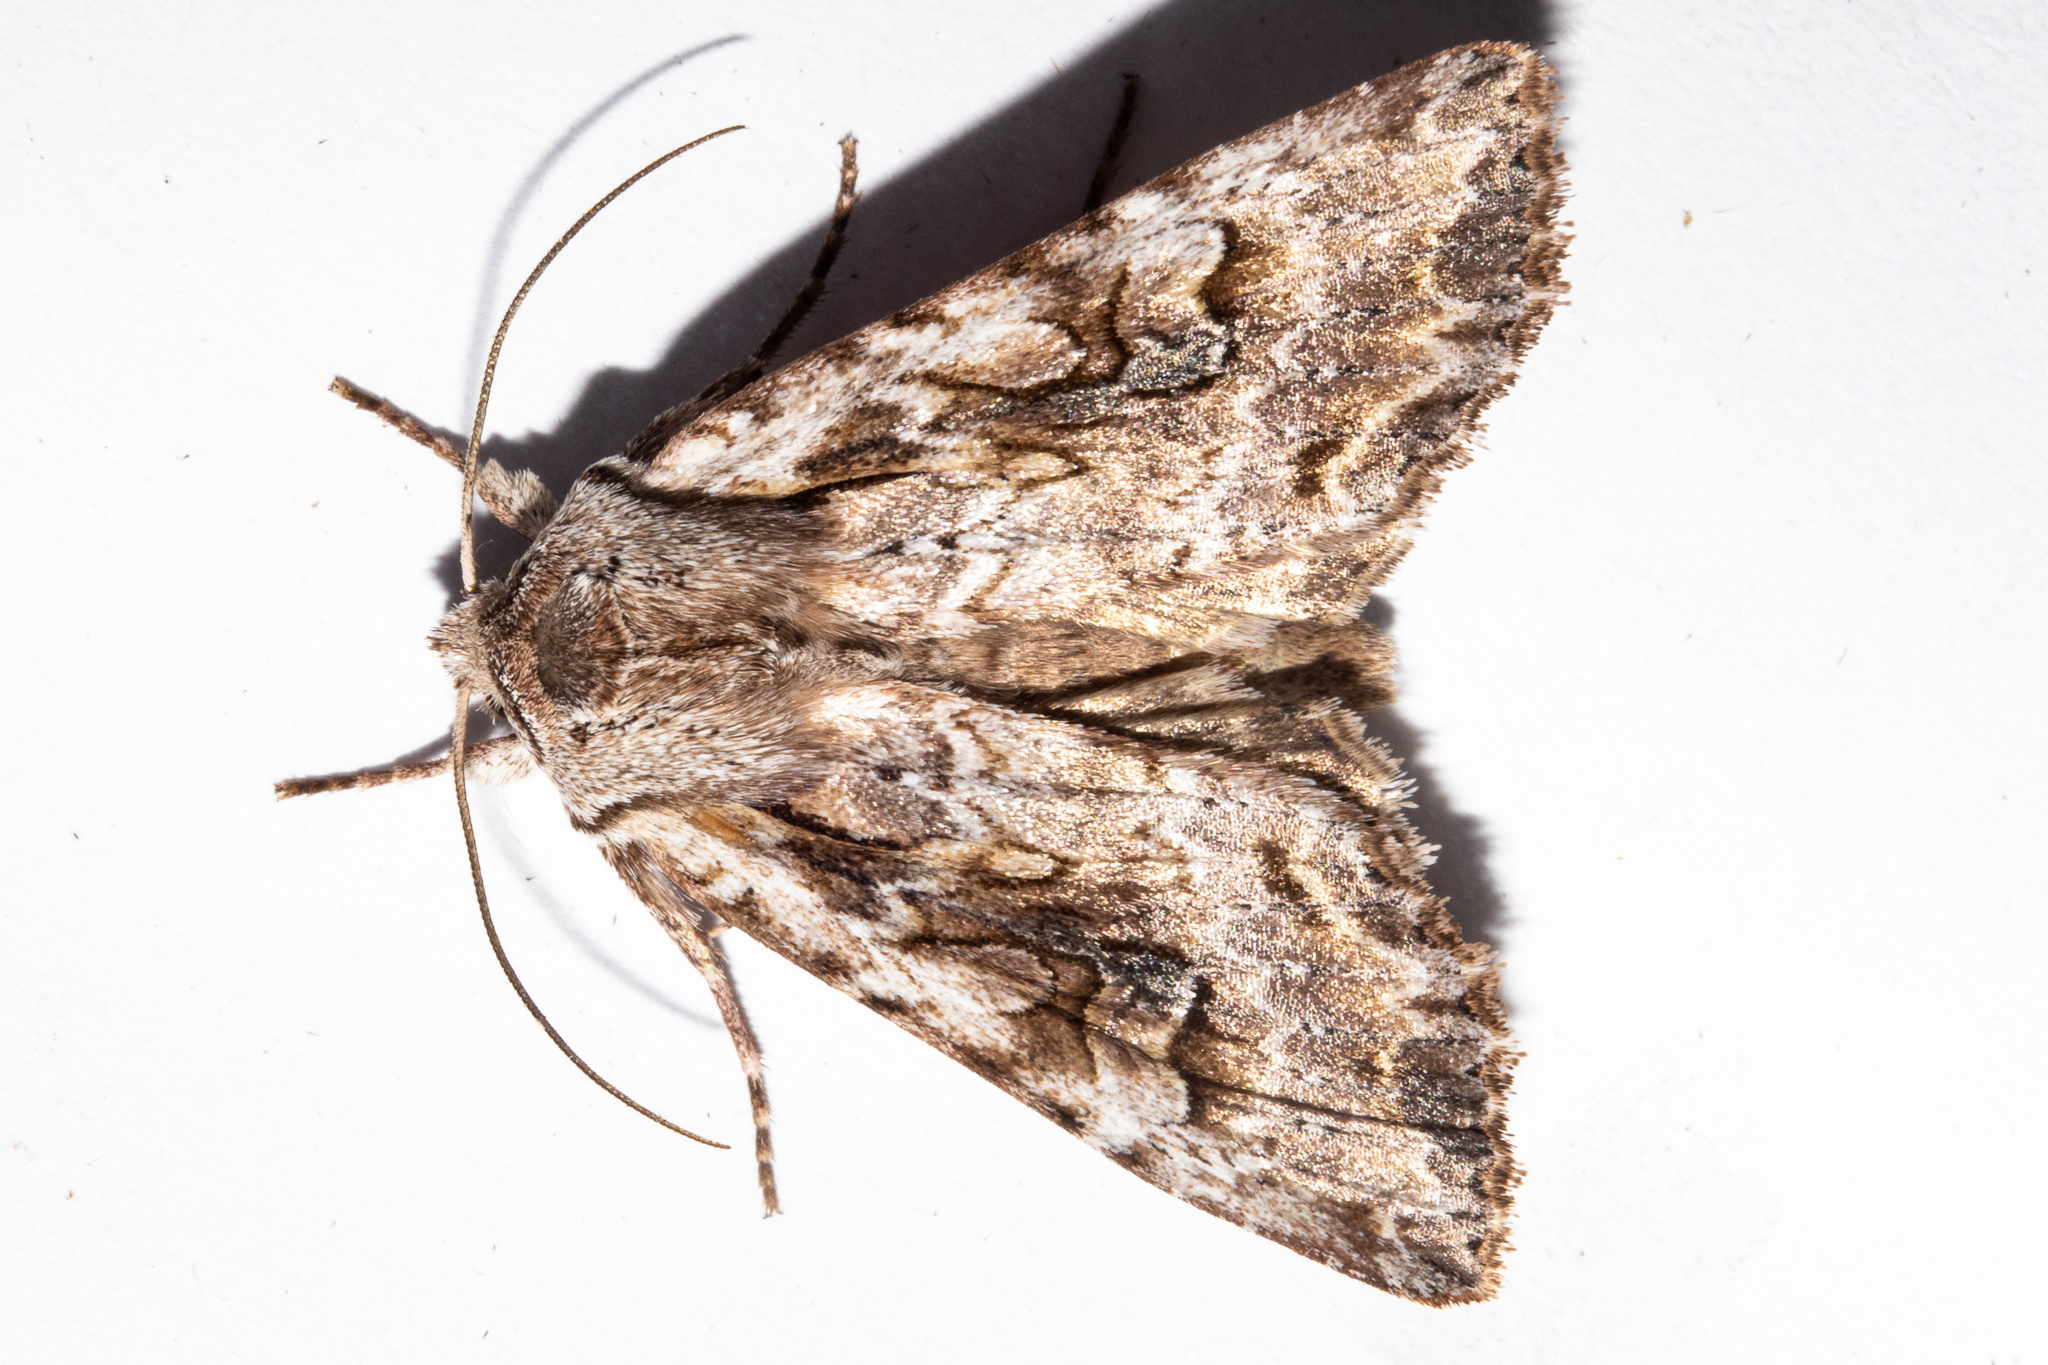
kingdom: Animalia
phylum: Arthropoda
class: Insecta
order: Lepidoptera
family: Noctuidae
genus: Ichneutica
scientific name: Ichneutica lindsayorum
